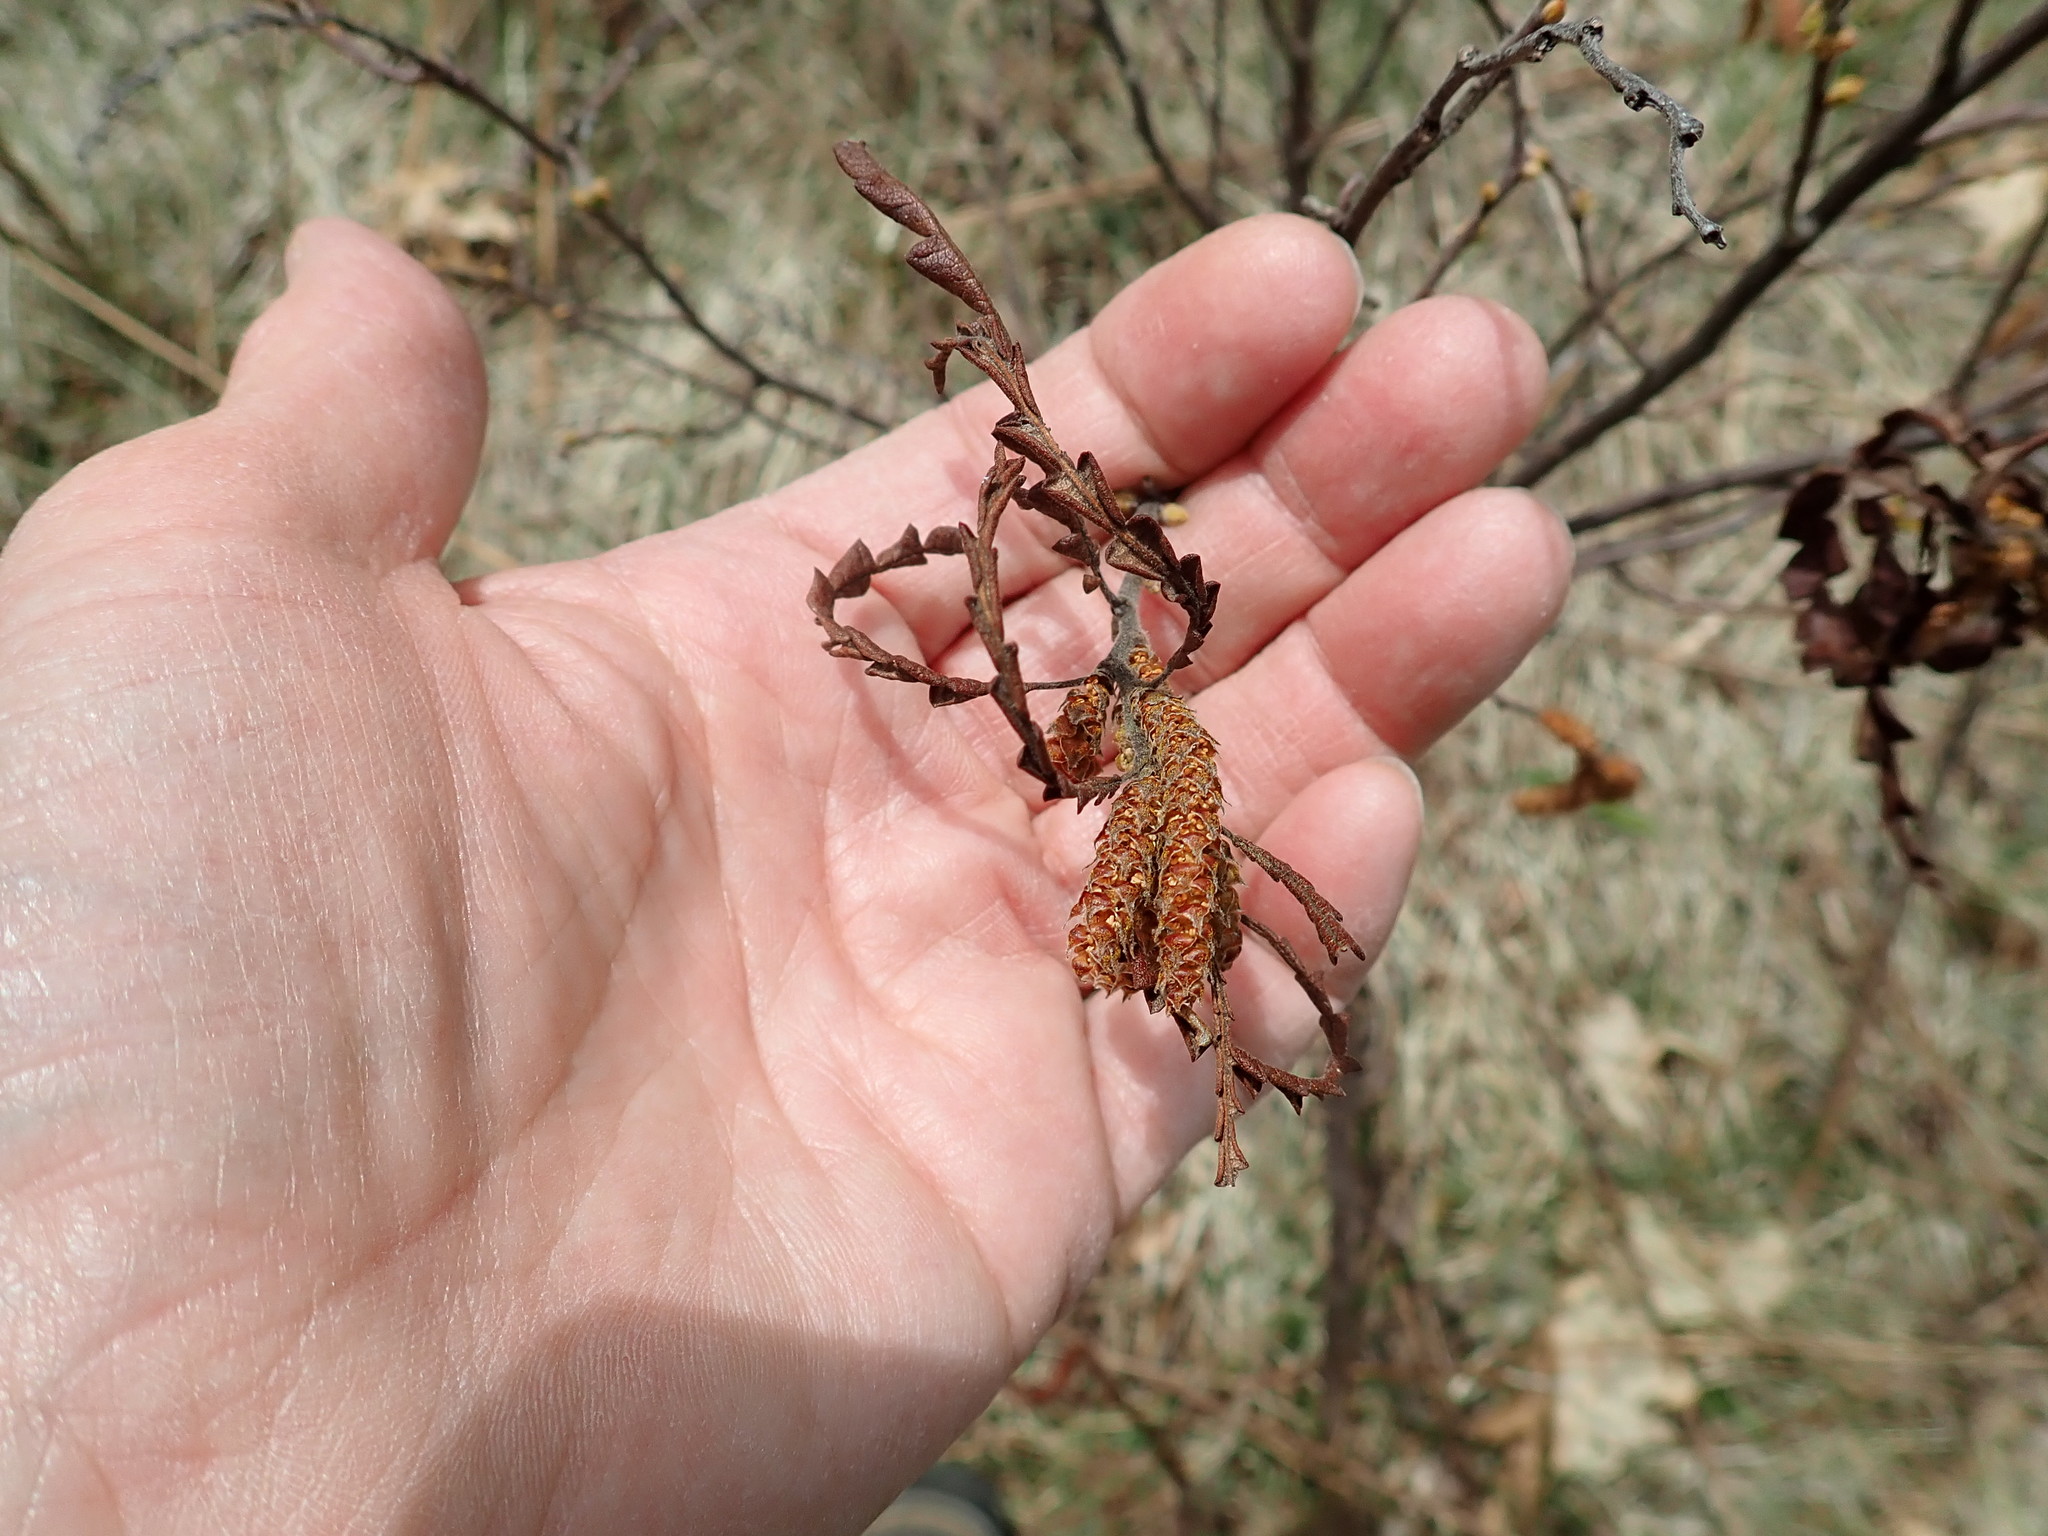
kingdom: Plantae
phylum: Tracheophyta
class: Magnoliopsida
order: Fagales
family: Myricaceae
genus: Comptonia
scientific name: Comptonia peregrina
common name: Sweet-fern
